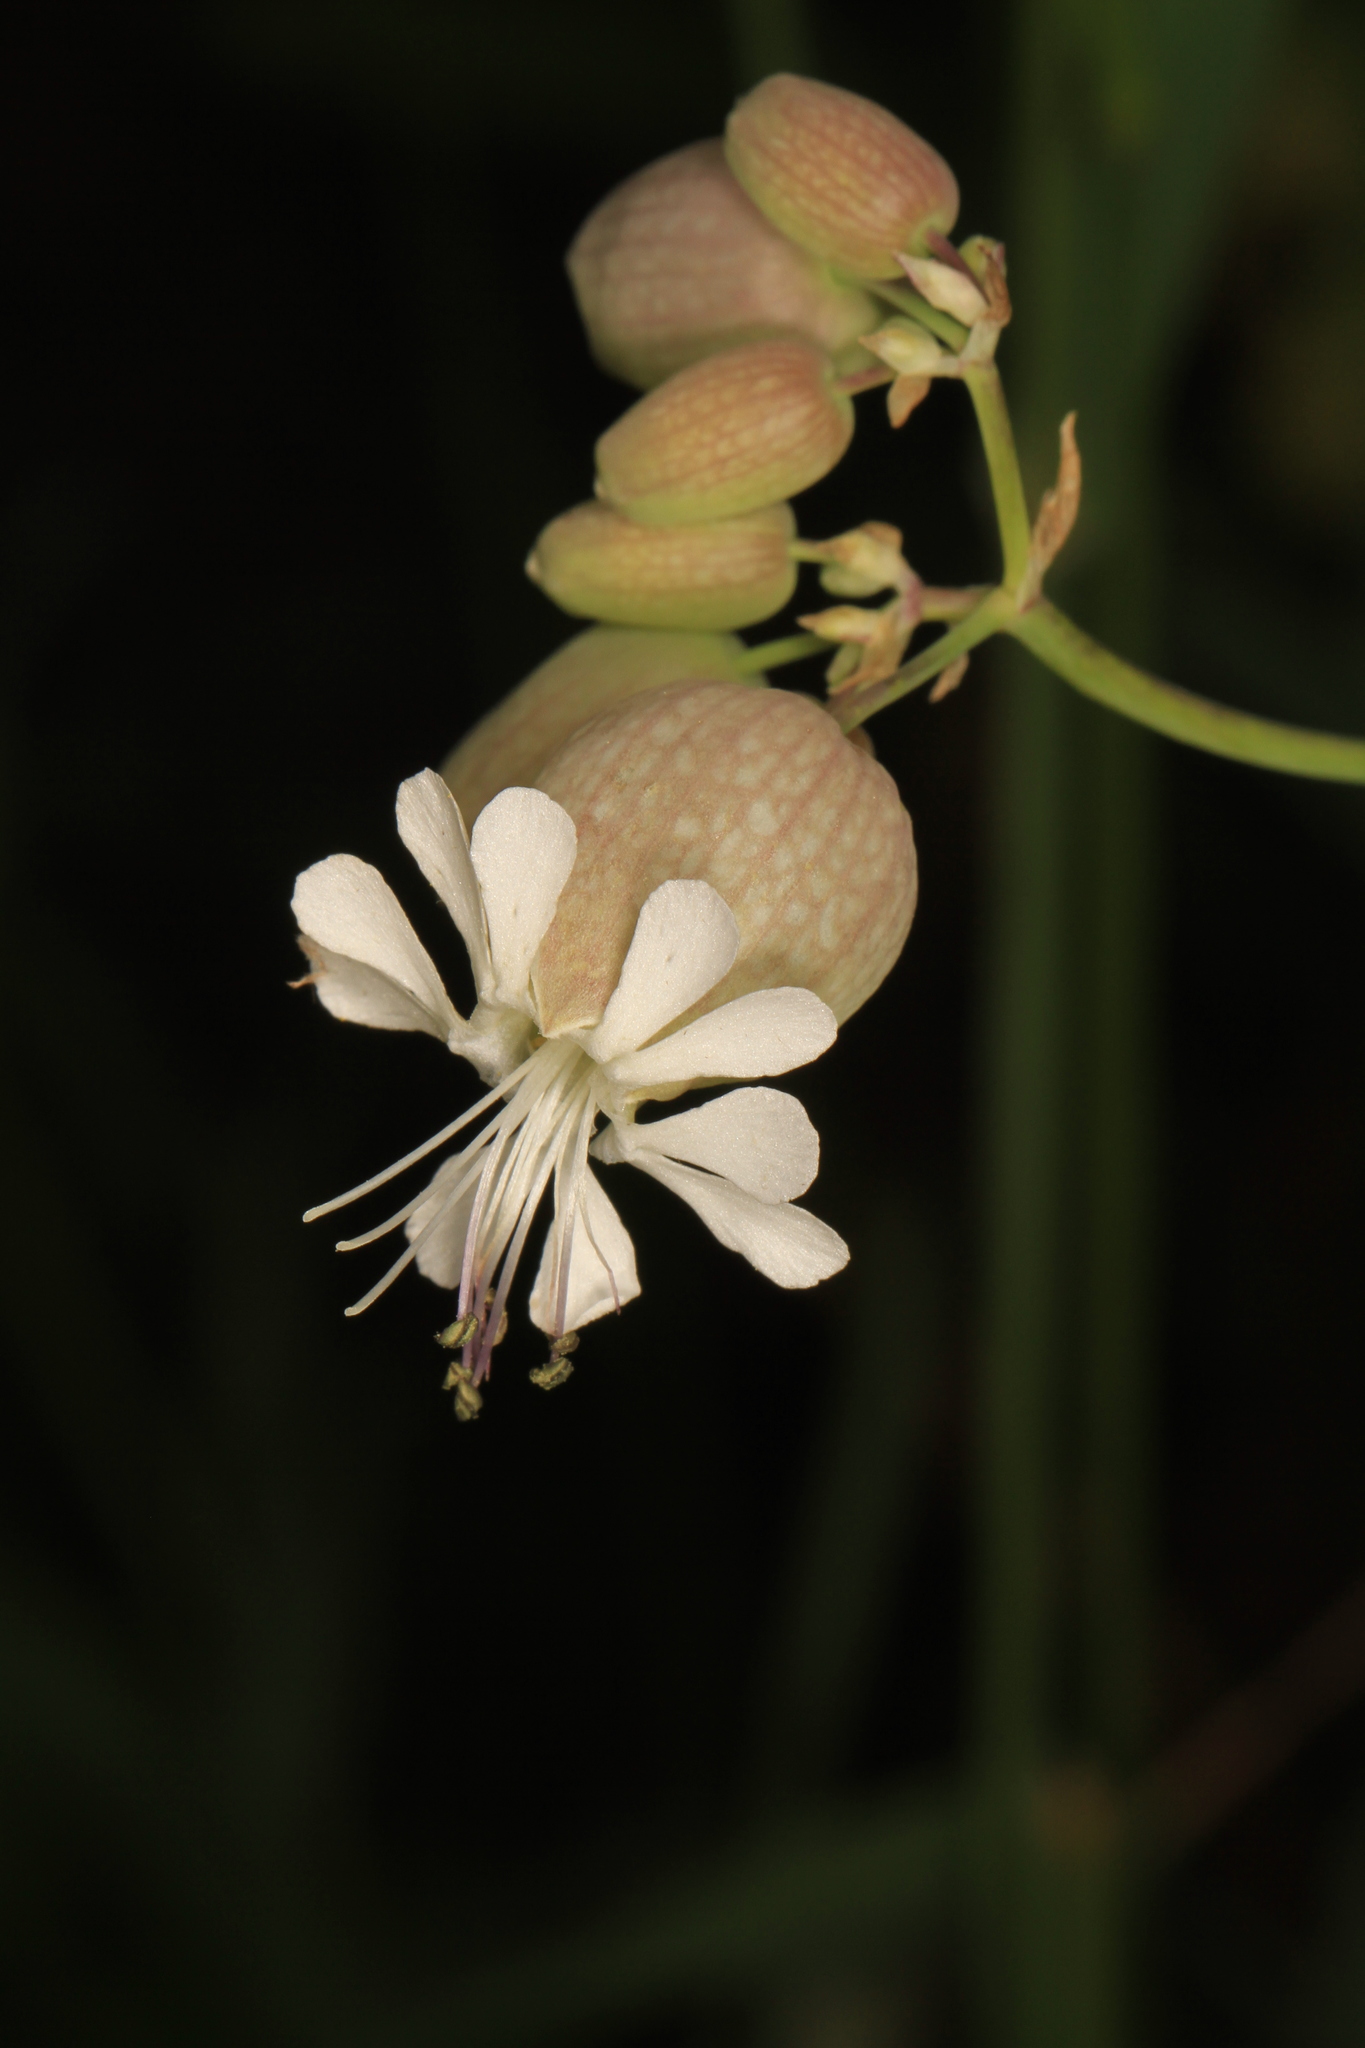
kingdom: Plantae
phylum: Tracheophyta
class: Magnoliopsida
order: Caryophyllales
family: Caryophyllaceae
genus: Silene
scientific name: Silene vulgaris
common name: Bladder campion
